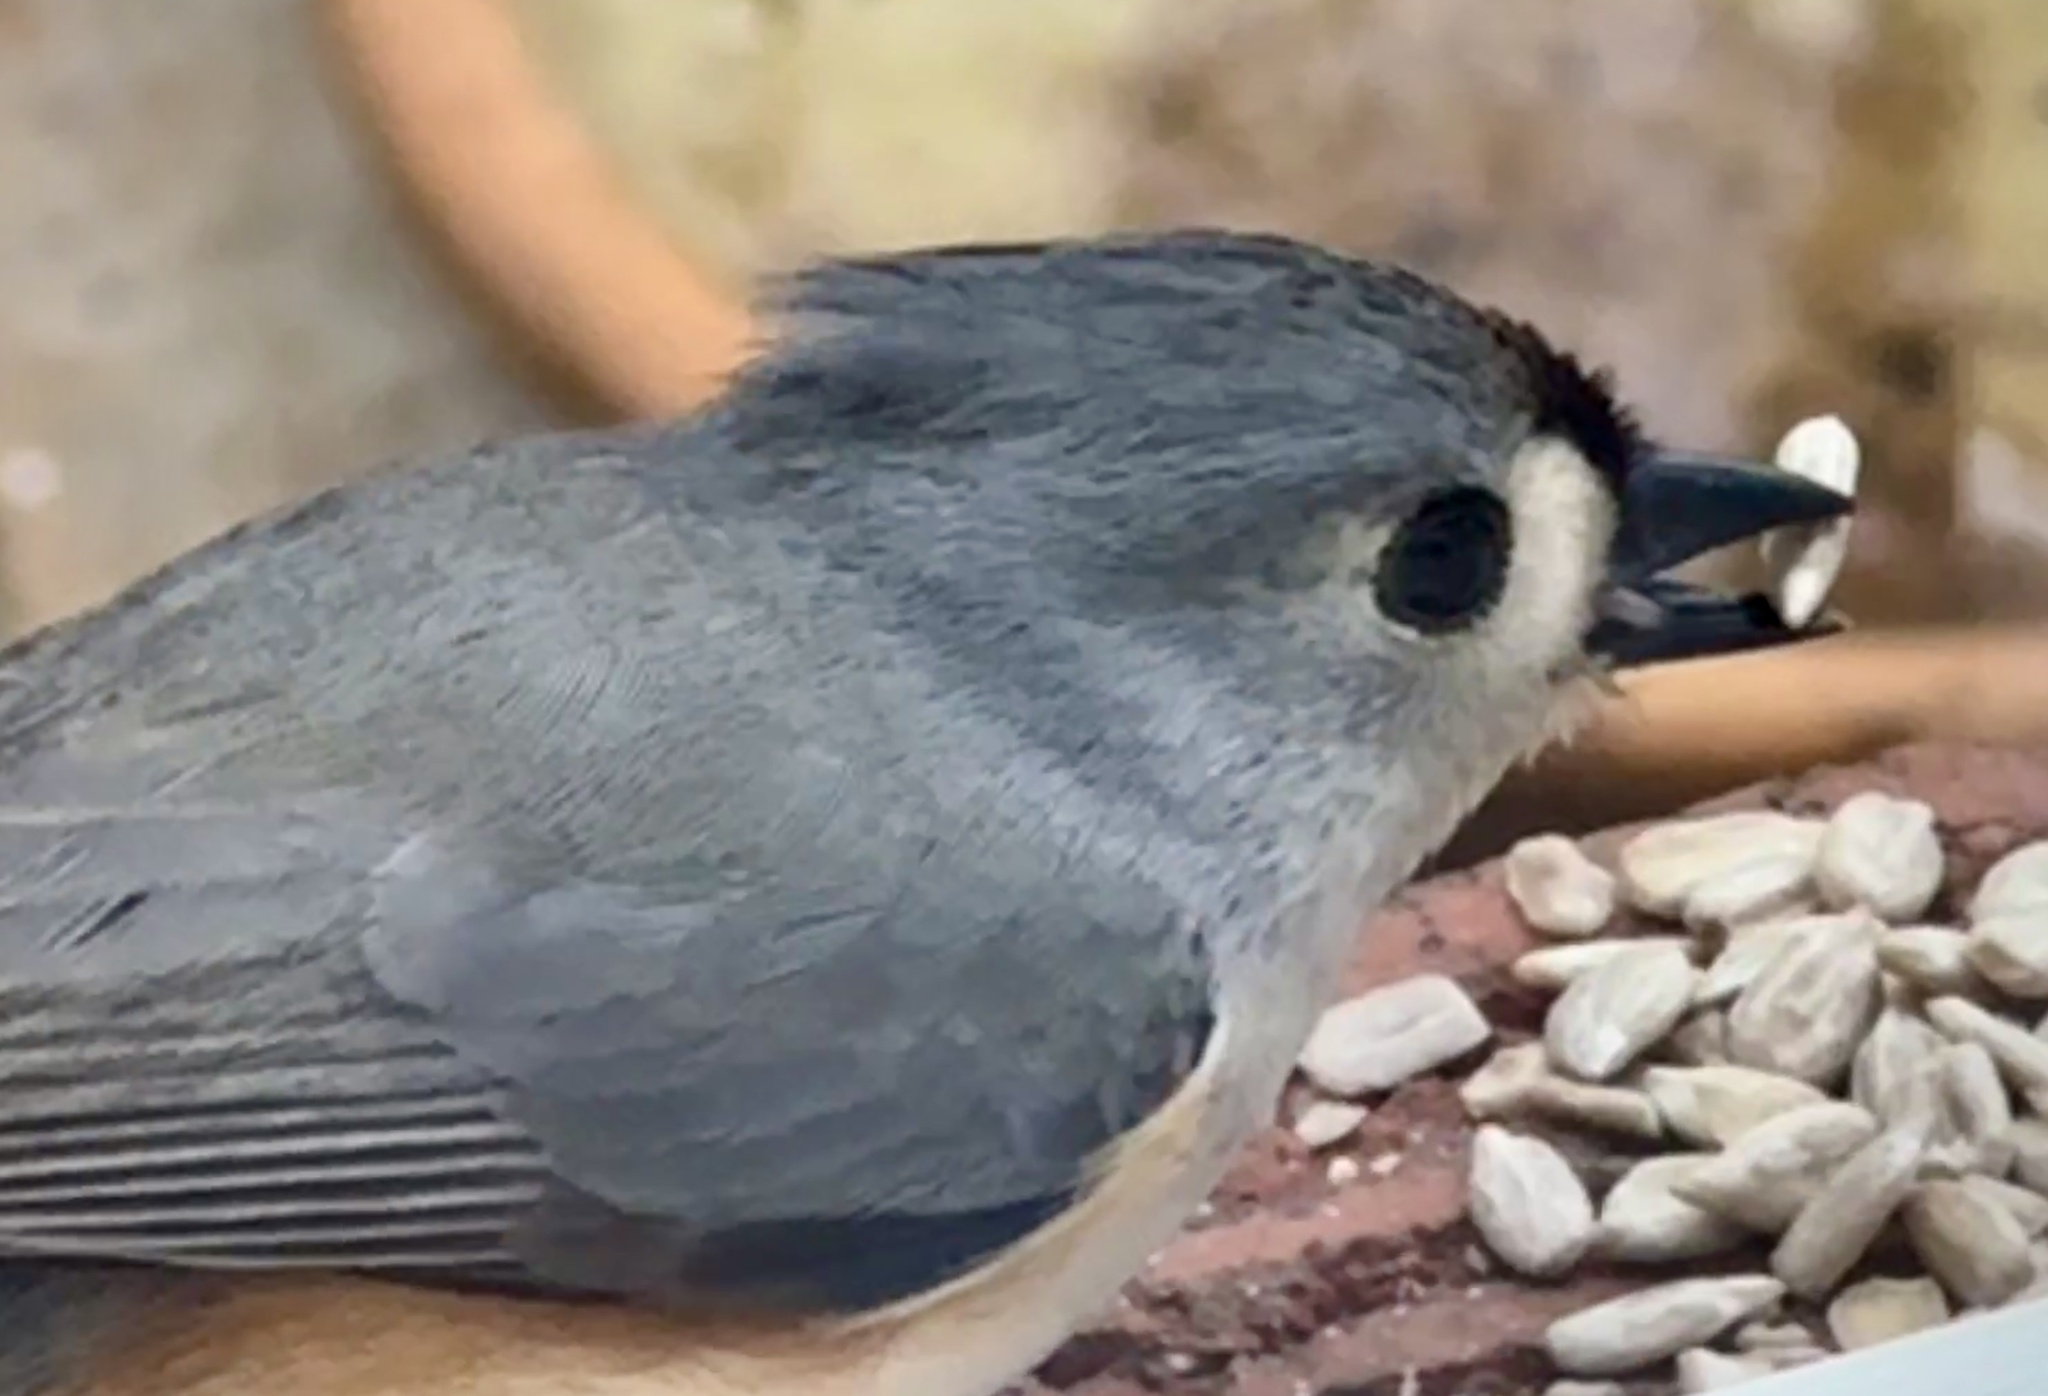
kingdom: Animalia
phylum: Chordata
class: Aves
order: Passeriformes
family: Paridae
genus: Baeolophus
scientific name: Baeolophus bicolor
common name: Tufted titmouse
